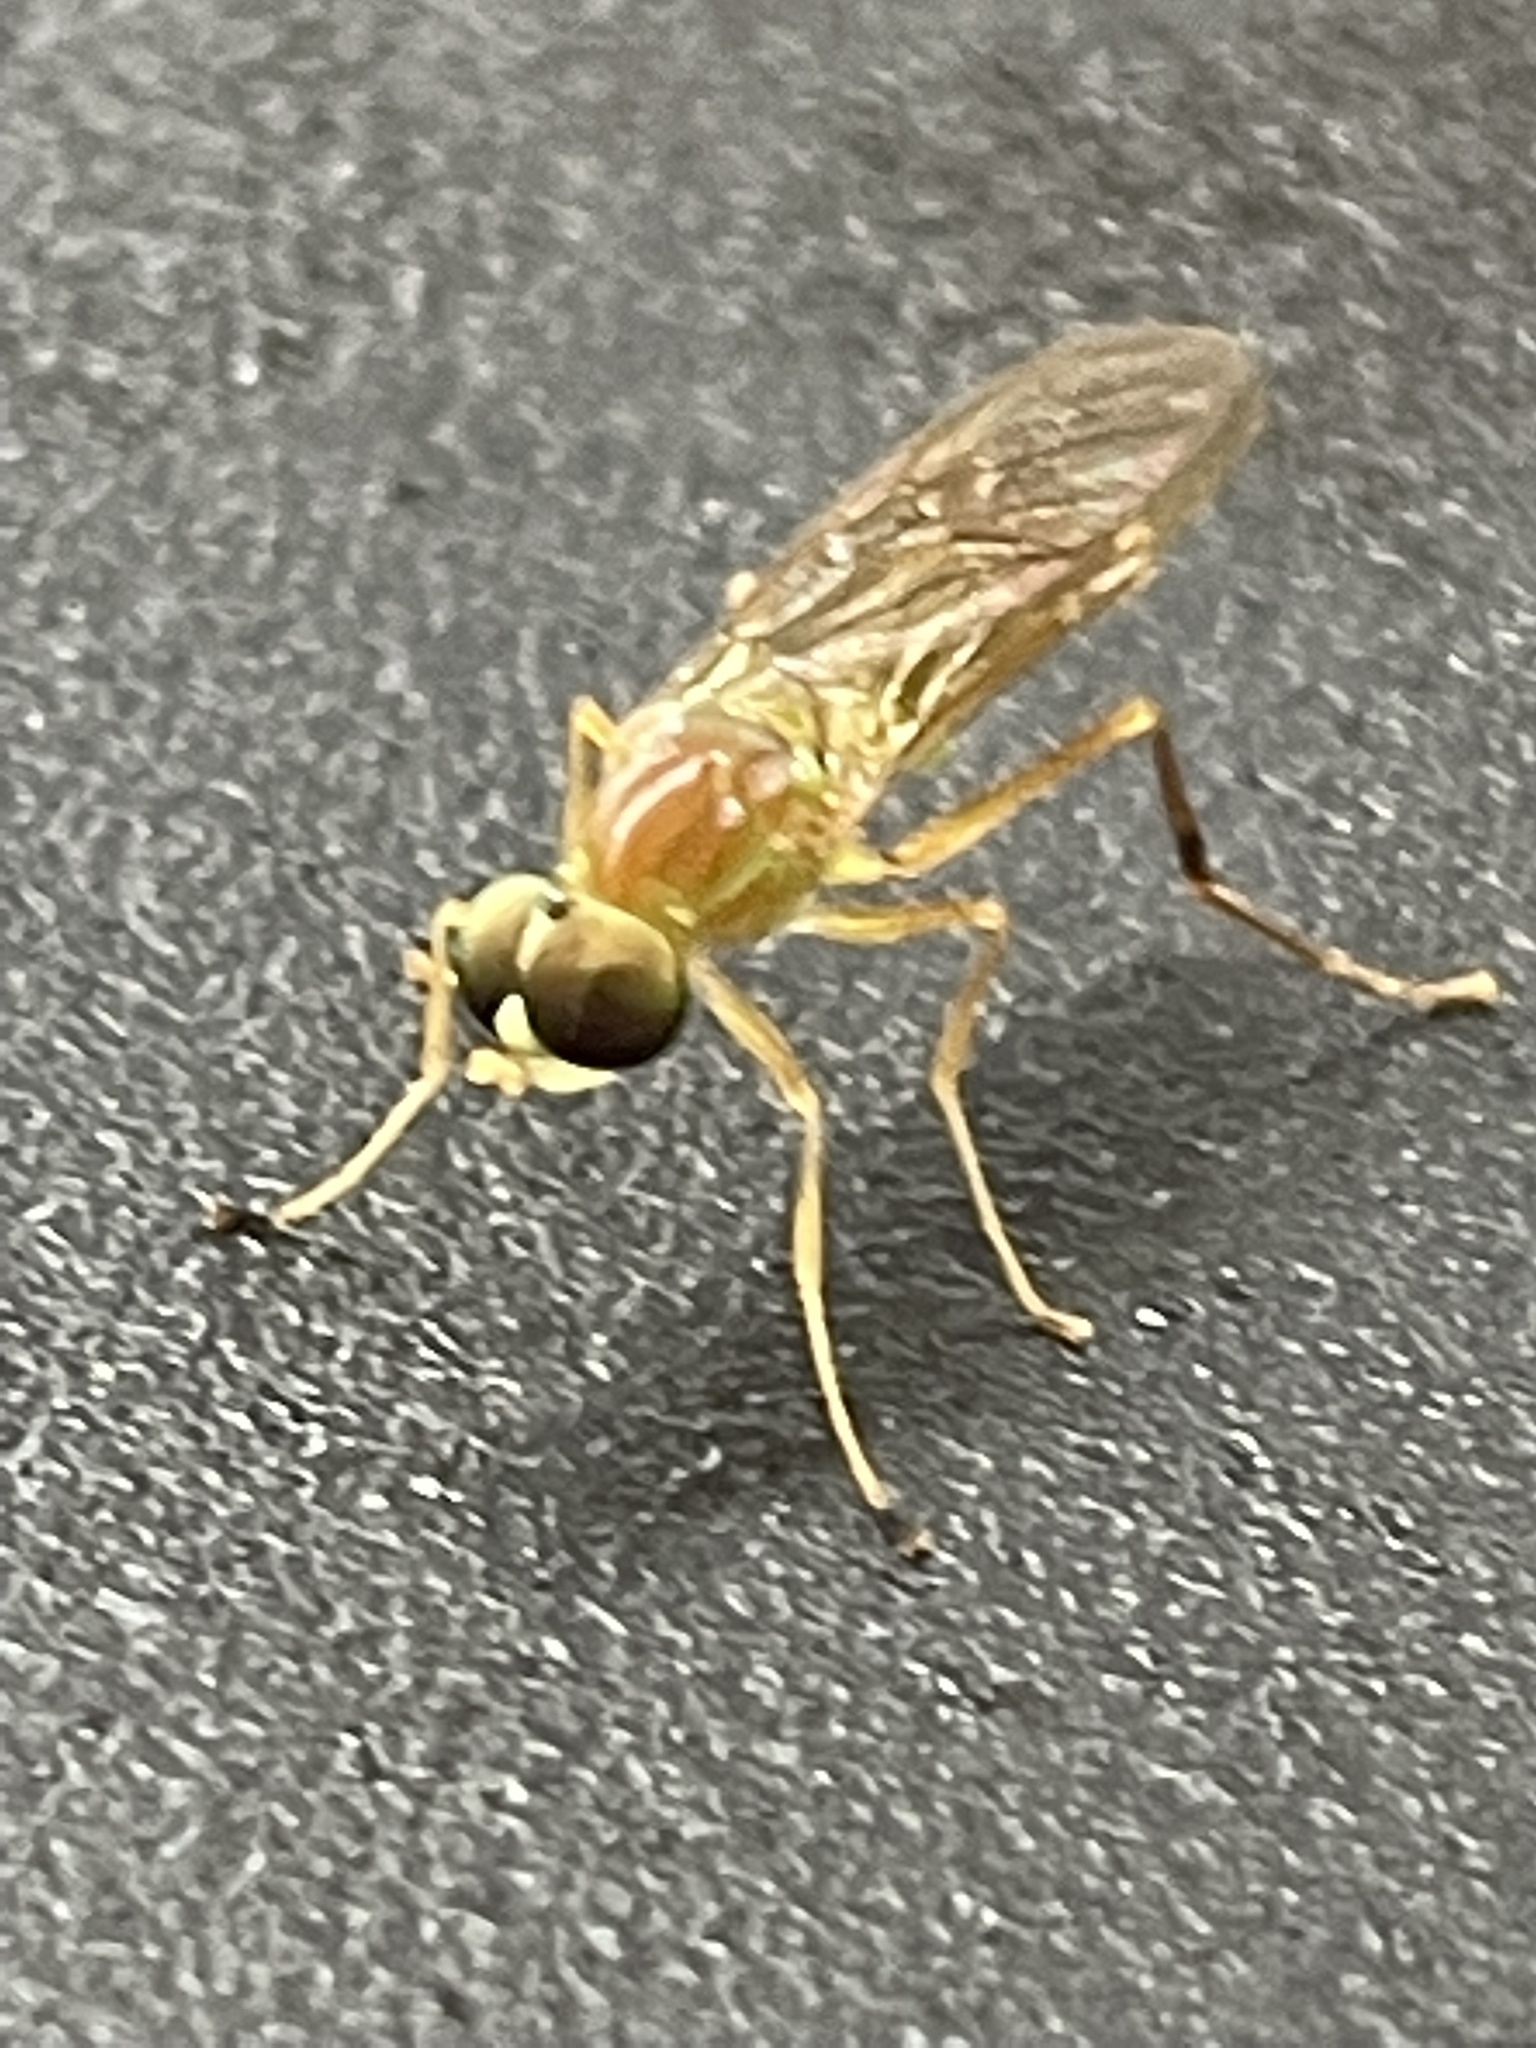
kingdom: Animalia
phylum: Arthropoda
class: Insecta
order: Diptera
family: Stratiomyidae
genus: Ptecticus
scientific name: Ptecticus trivittatus
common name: Compost fly
